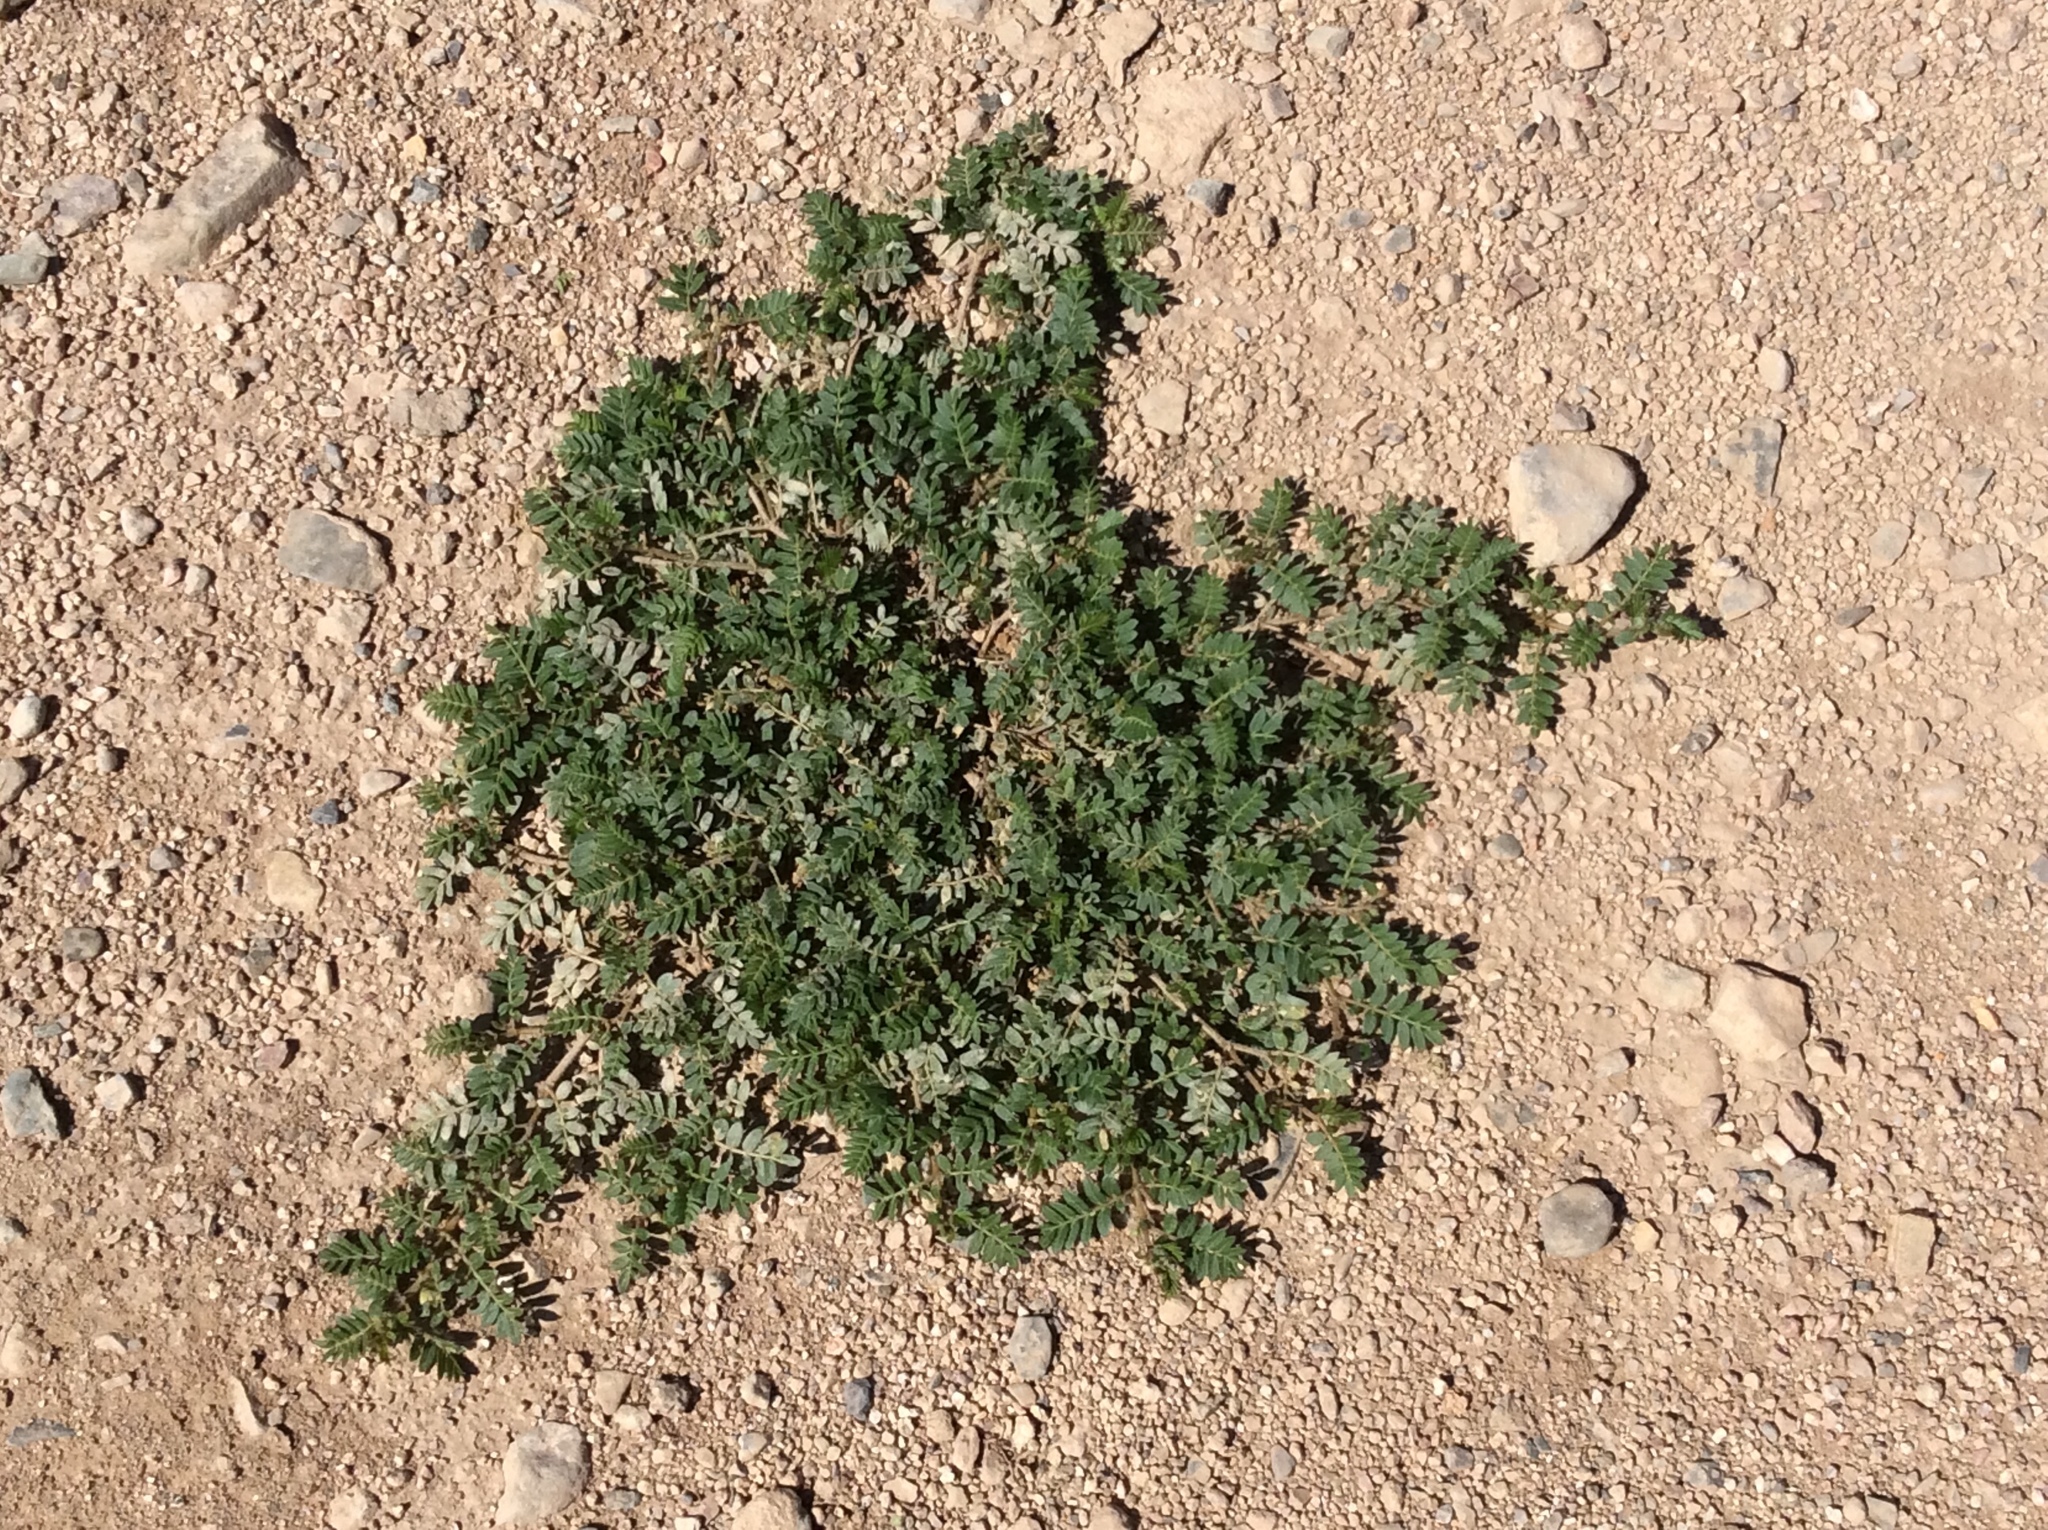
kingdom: Plantae
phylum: Tracheophyta
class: Magnoliopsida
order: Zygophyllales
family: Zygophyllaceae
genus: Tribulus
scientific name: Tribulus terrestris
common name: Puncturevine
